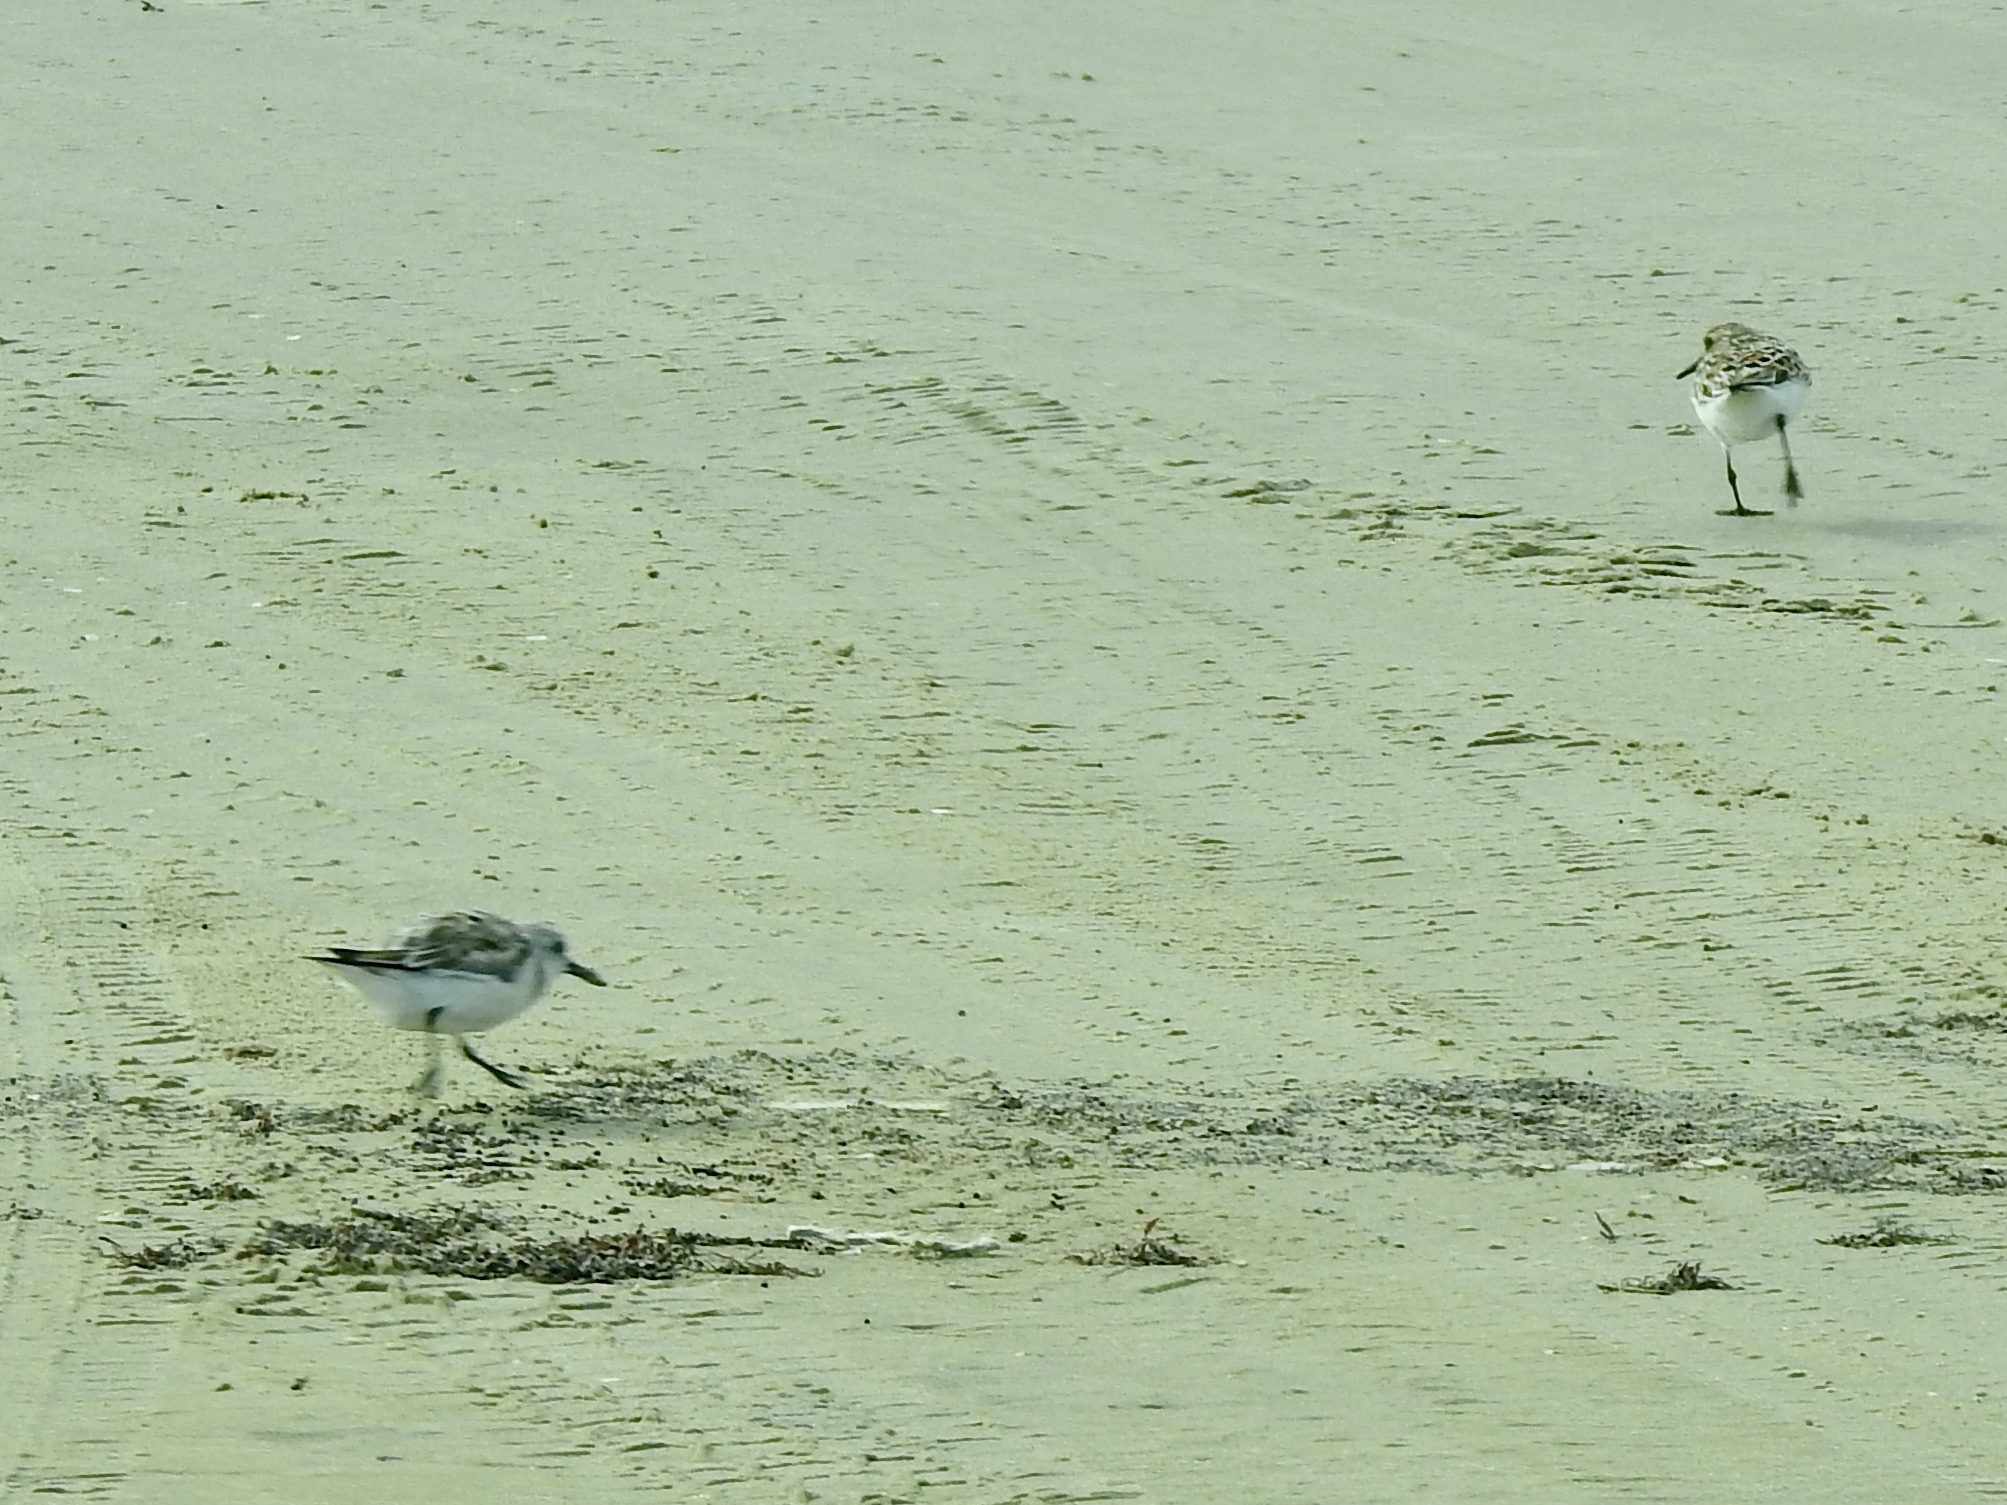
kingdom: Animalia
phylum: Chordata
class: Aves
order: Charadriiformes
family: Scolopacidae
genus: Calidris
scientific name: Calidris alba
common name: Sanderling
